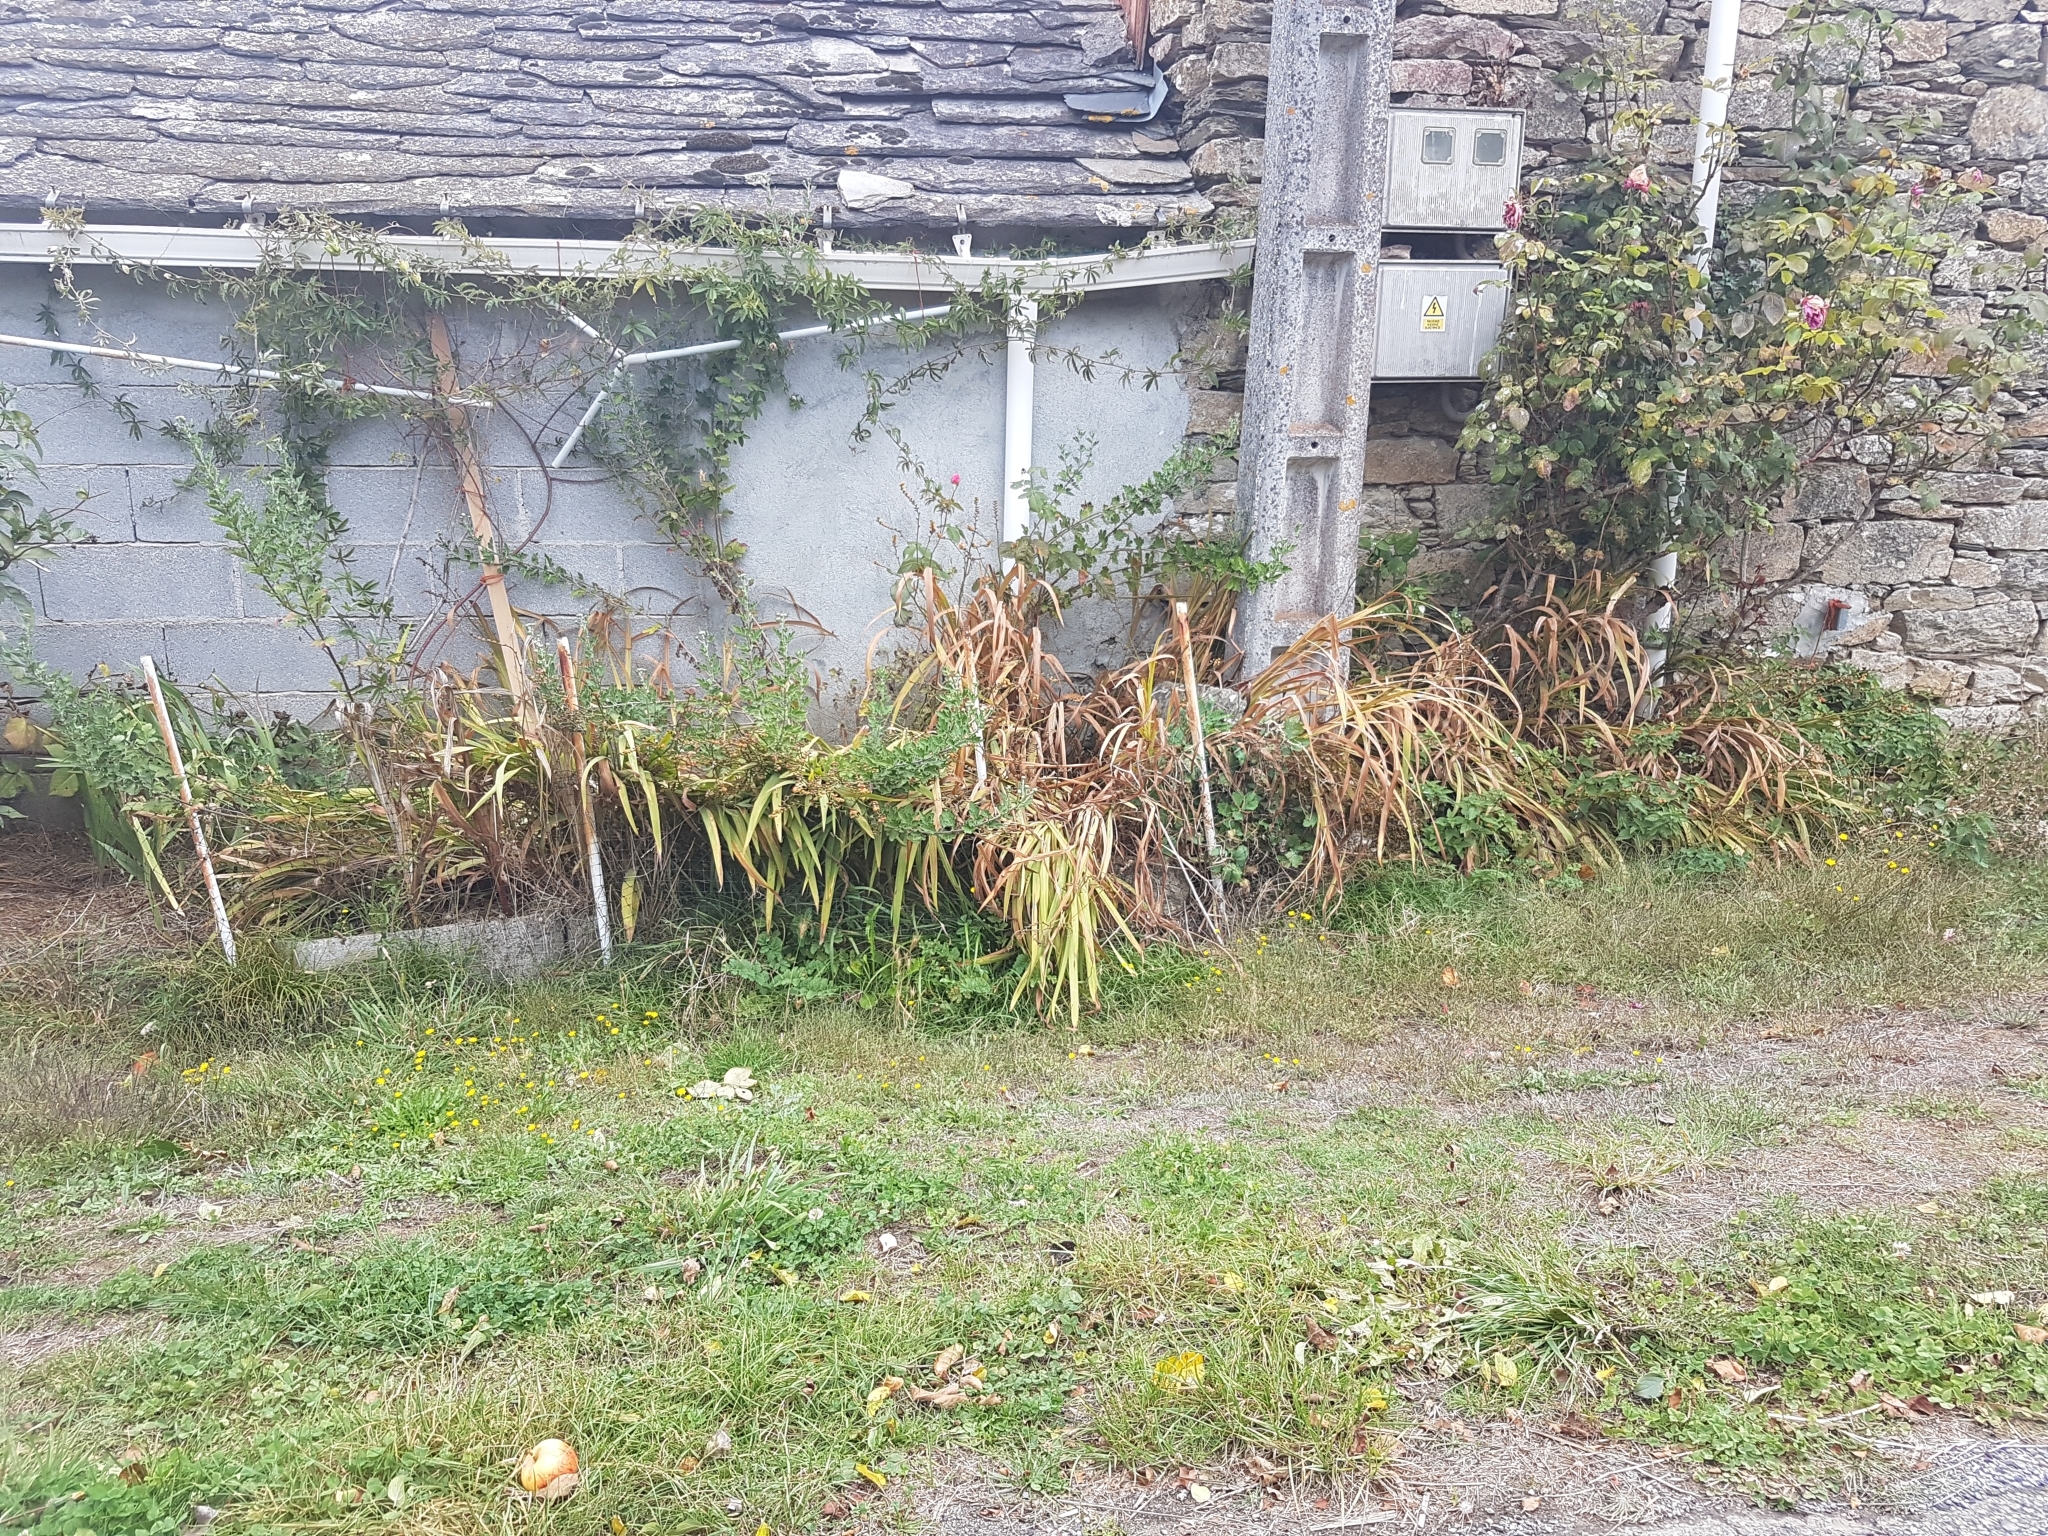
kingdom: Plantae
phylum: Tracheophyta
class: Liliopsida
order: Asparagales
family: Iridaceae
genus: Crocosmia
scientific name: Crocosmia crocosmiiflora
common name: Montbretia
